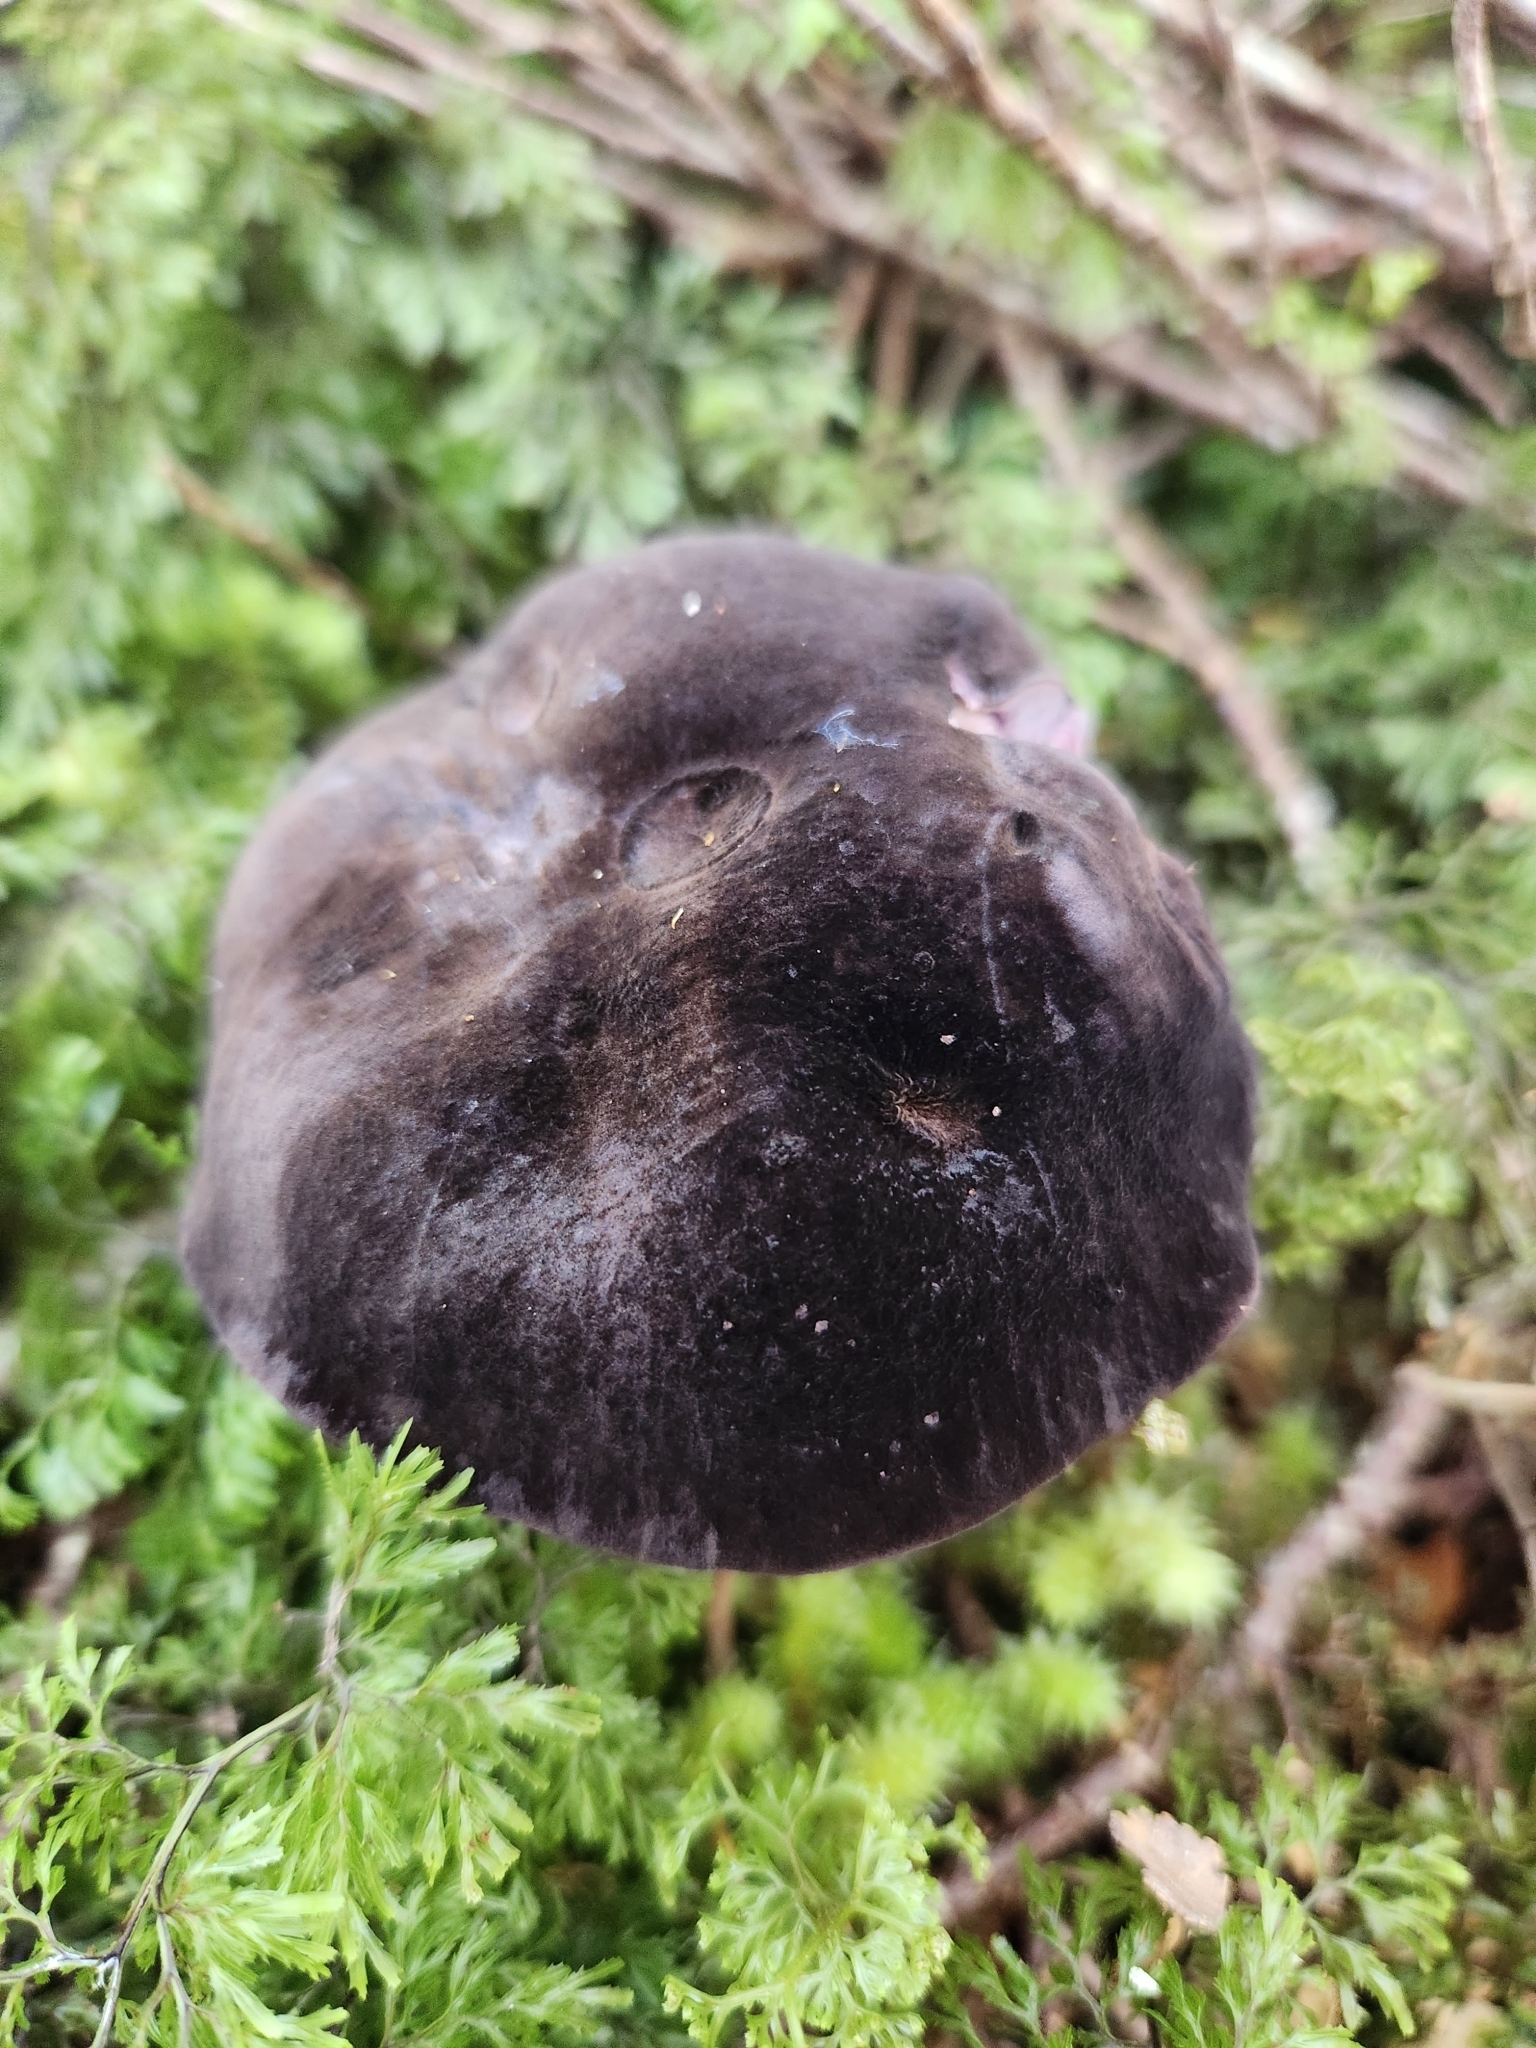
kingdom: Fungi
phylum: Basidiomycota
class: Agaricomycetes
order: Boletales
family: Boletaceae
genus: Porphyrellus
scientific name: Porphyrellus formosus
